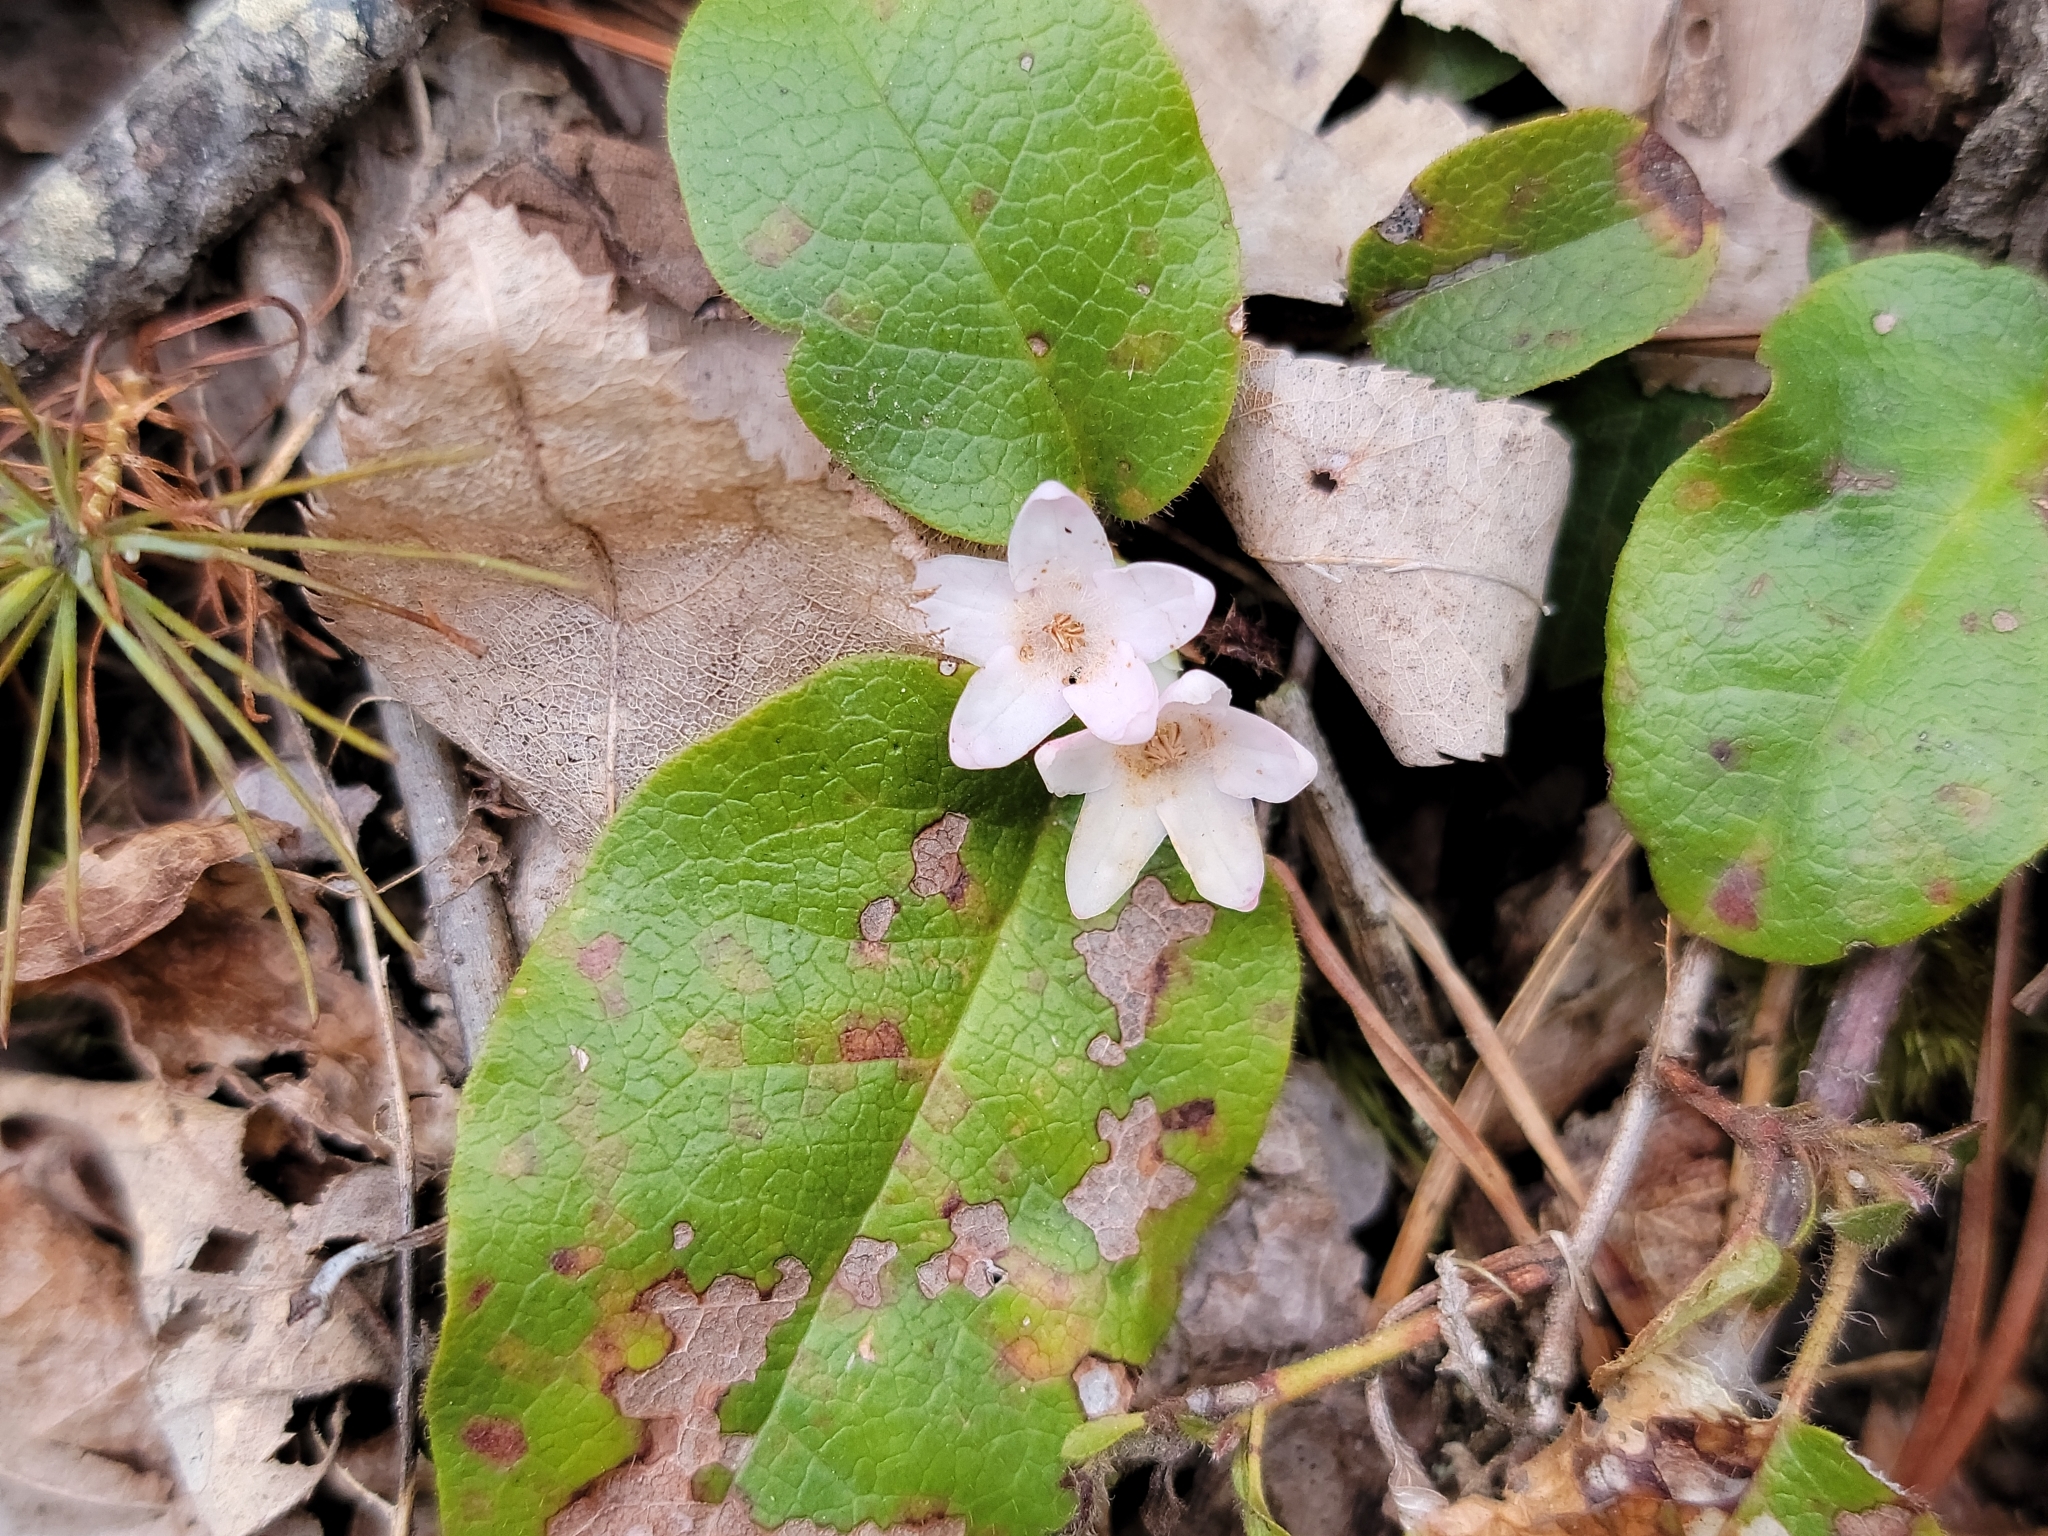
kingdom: Plantae
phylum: Tracheophyta
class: Magnoliopsida
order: Ericales
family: Ericaceae
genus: Epigaea
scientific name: Epigaea repens
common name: Gravelroot
